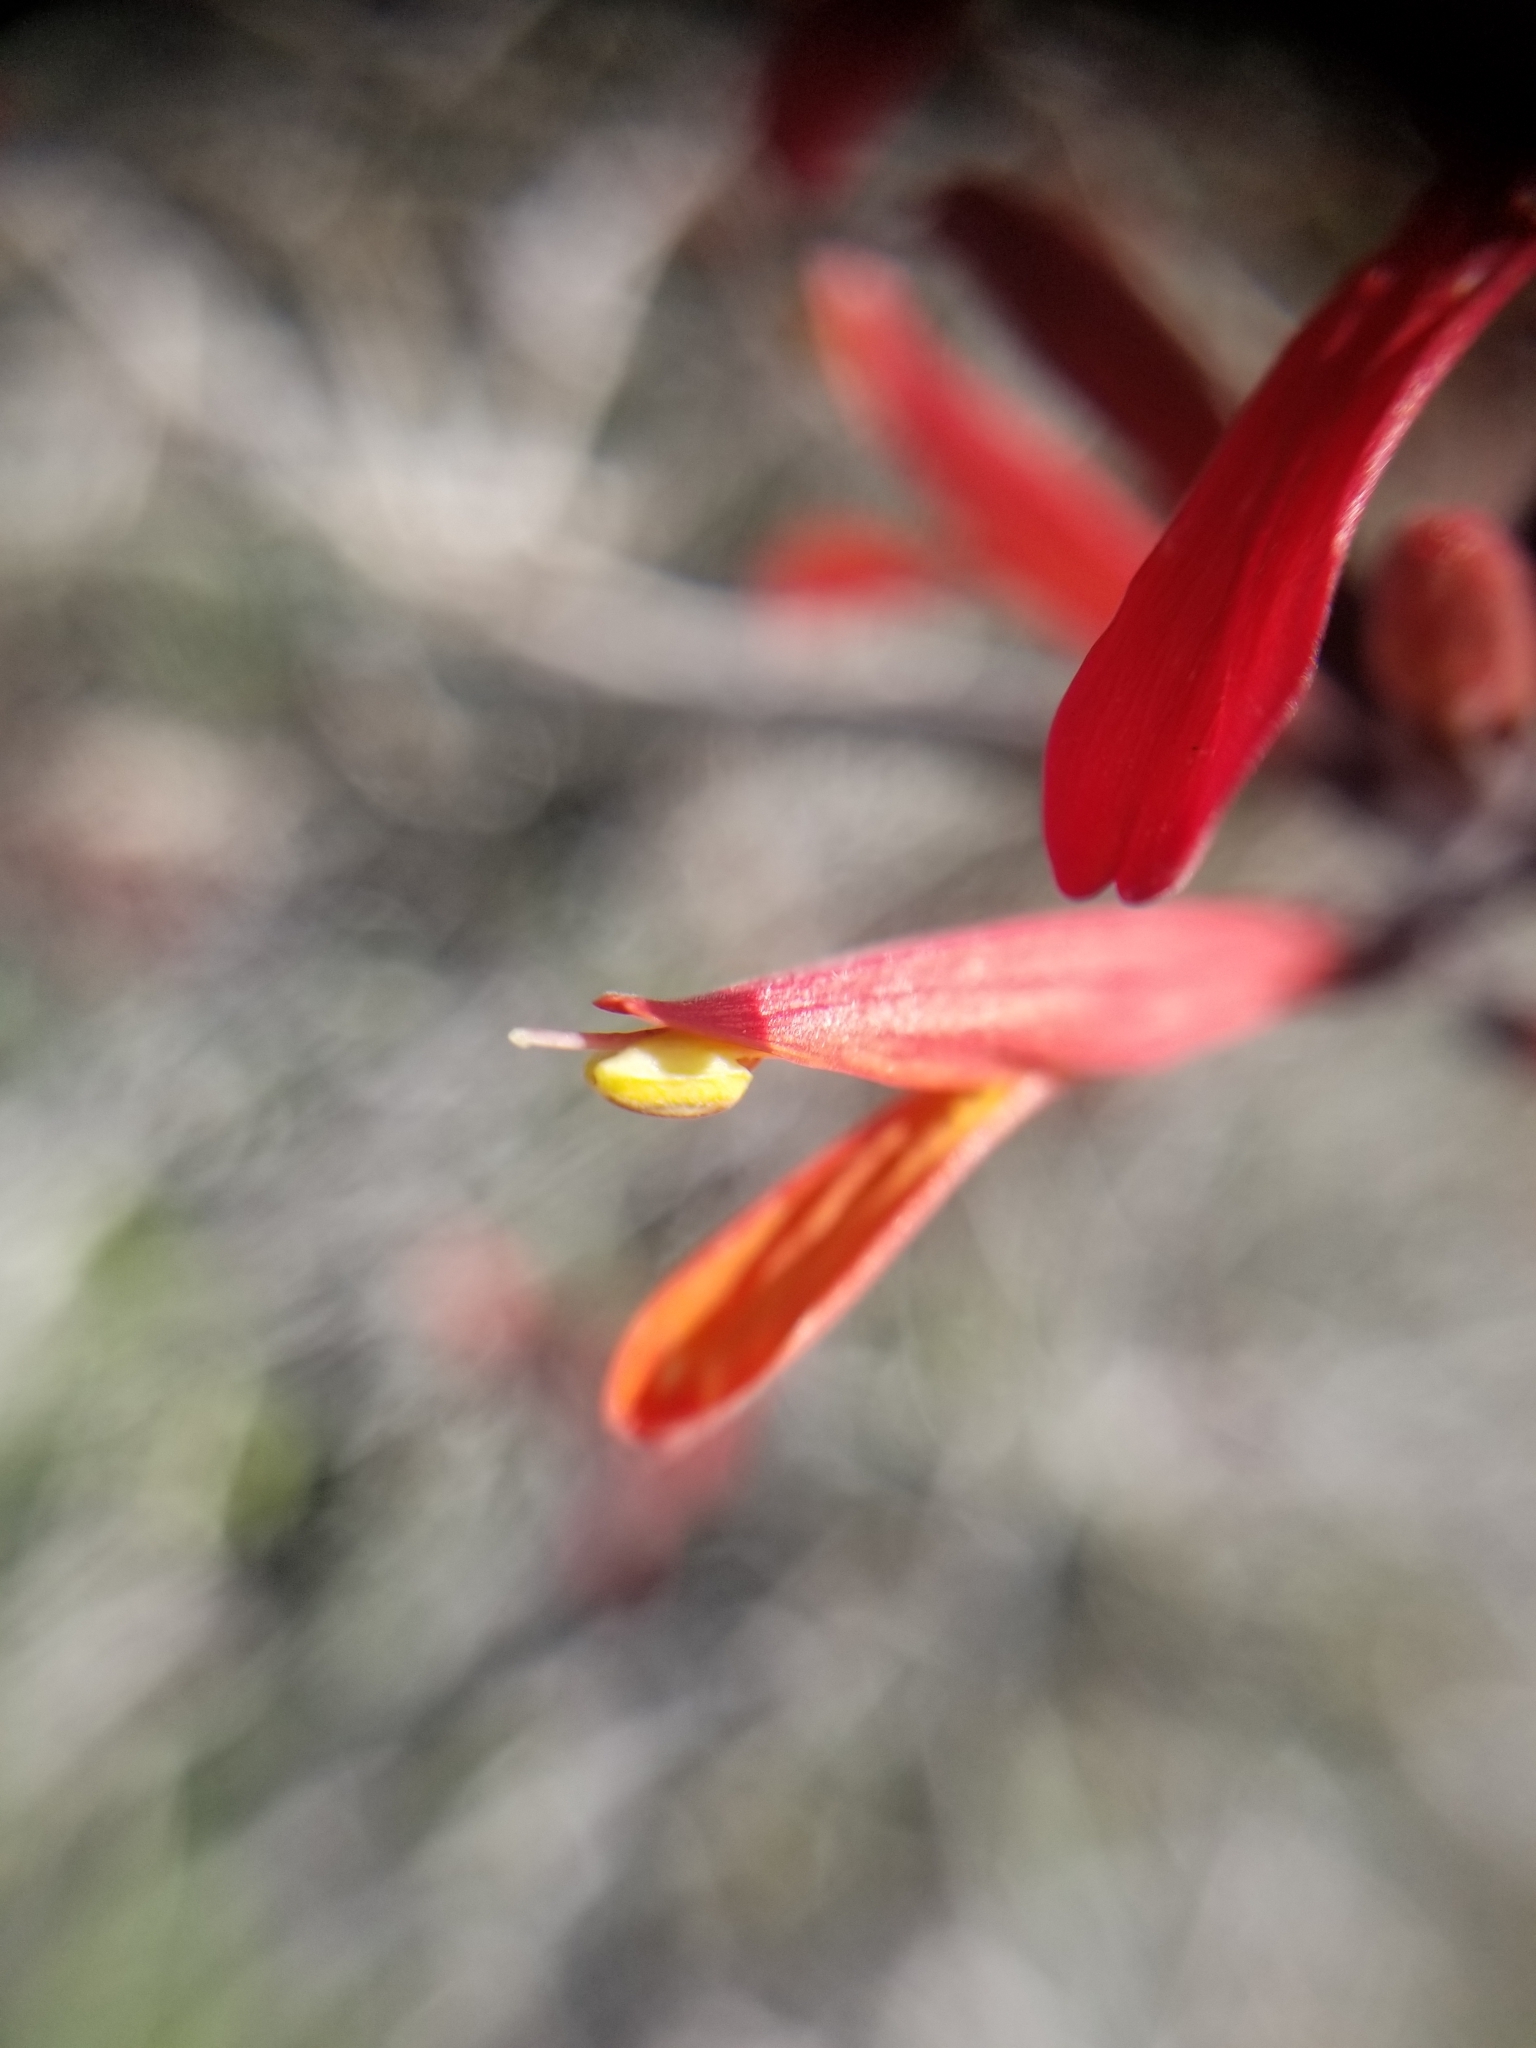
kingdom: Plantae
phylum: Tracheophyta
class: Magnoliopsida
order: Lamiales
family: Acanthaceae
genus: Justicia
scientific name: Justicia californica
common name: Chuparosa-honeysuckle
